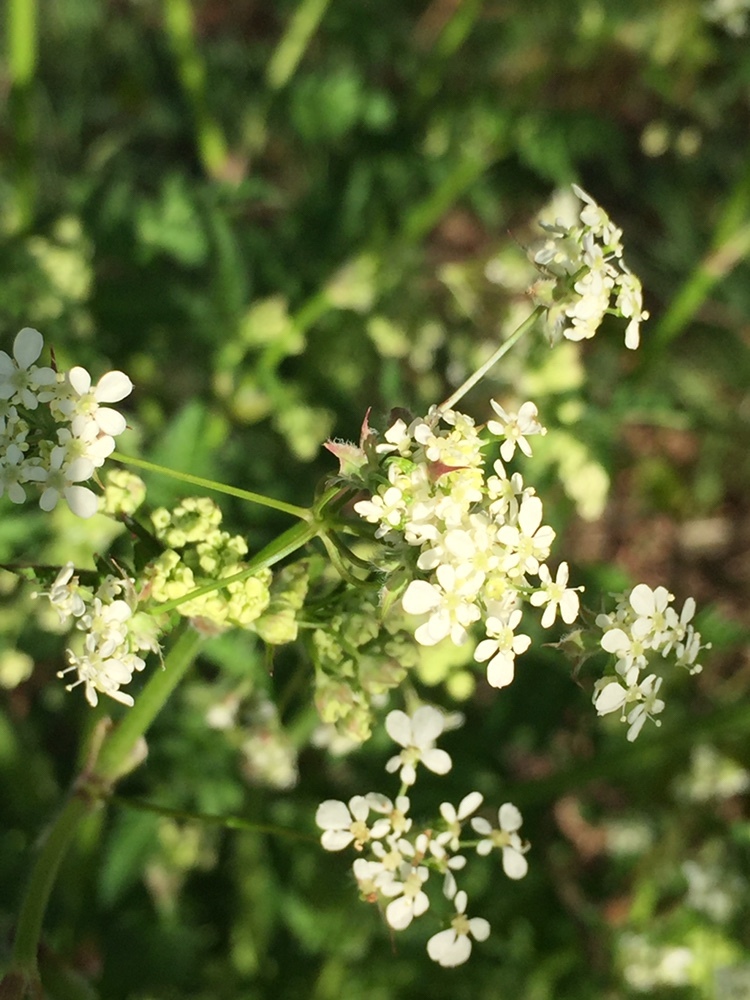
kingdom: Plantae
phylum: Tracheophyta
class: Magnoliopsida
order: Apiales
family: Apiaceae
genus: Anthriscus
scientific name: Anthriscus sylvestris
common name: Cow parsley
